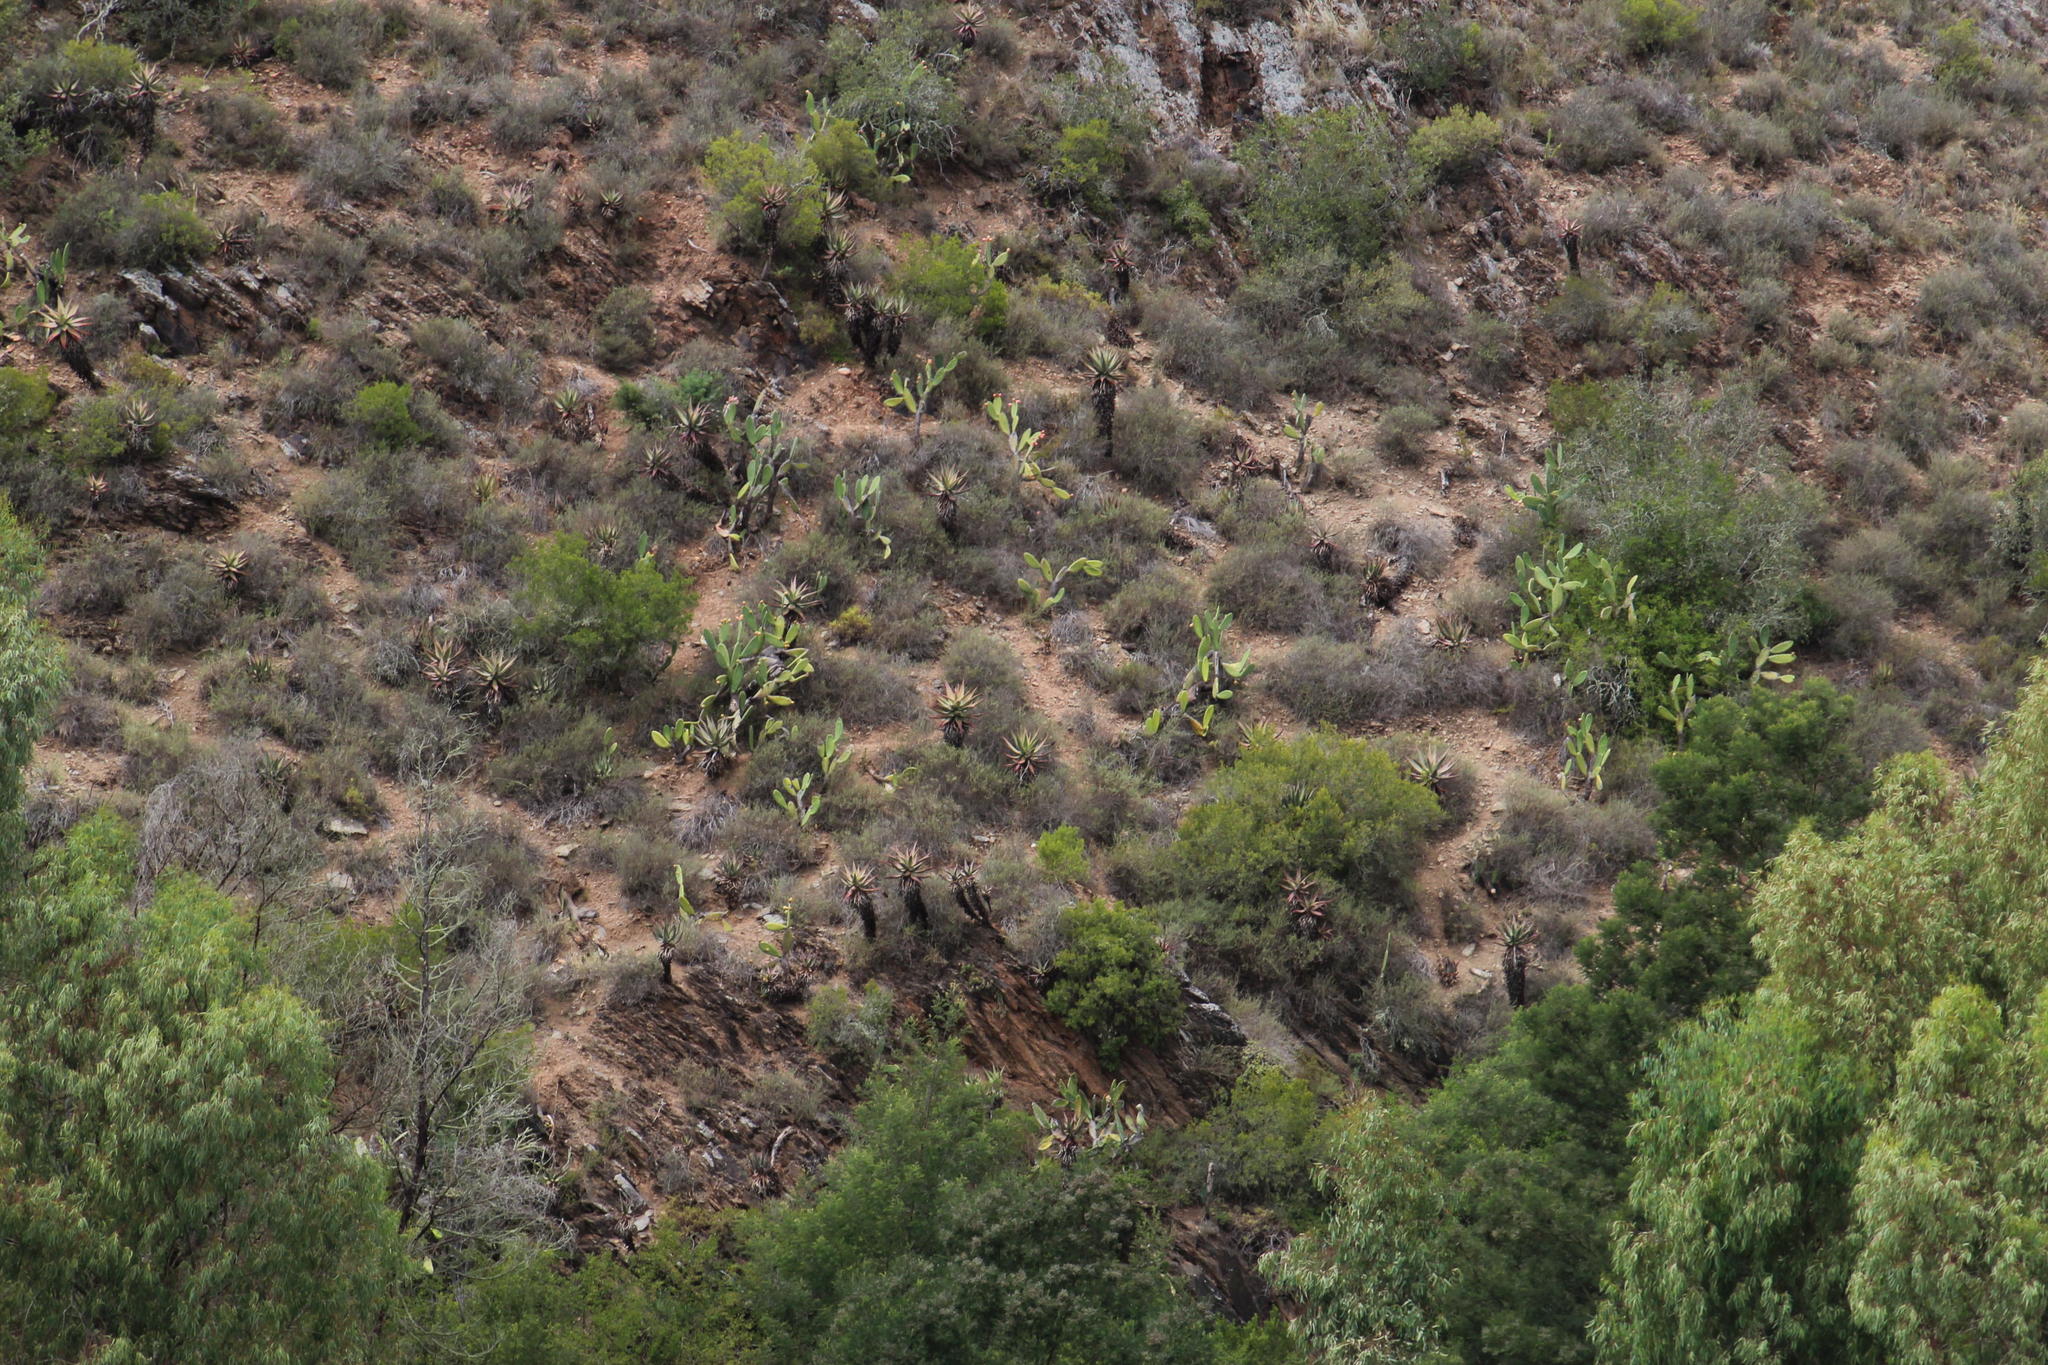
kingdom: Plantae
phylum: Tracheophyta
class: Magnoliopsida
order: Caryophyllales
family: Cactaceae
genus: Opuntia
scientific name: Opuntia ficus-indica
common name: Barbary fig
